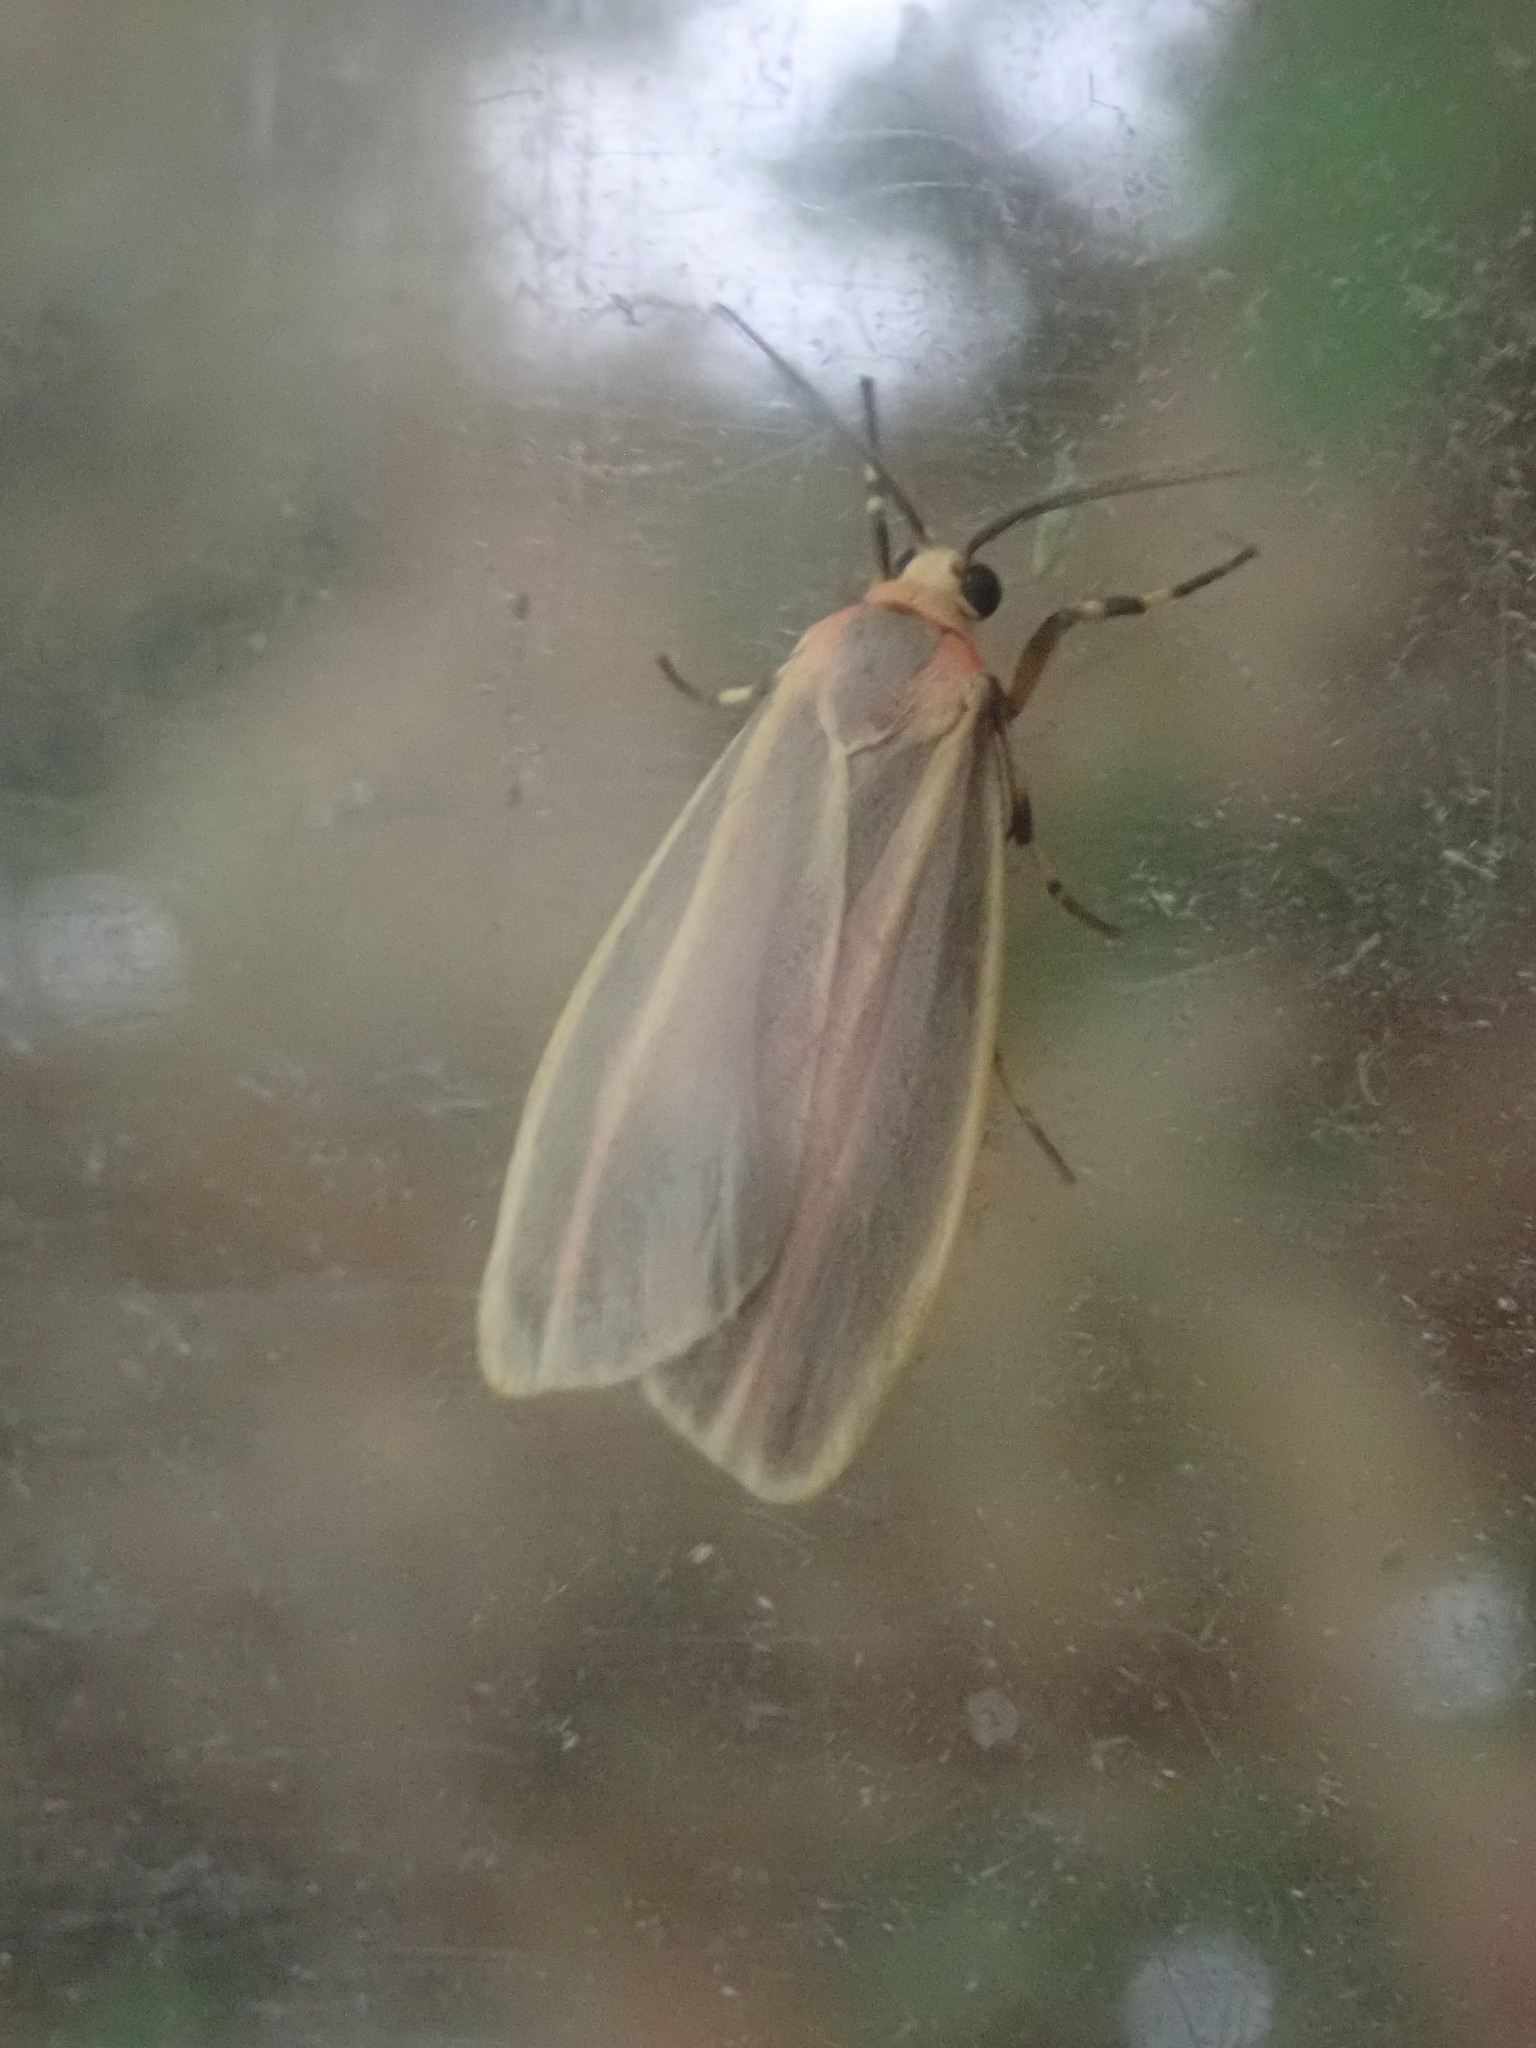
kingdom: Animalia
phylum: Arthropoda
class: Insecta
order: Lepidoptera
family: Erebidae
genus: Hypoprepia
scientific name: Hypoprepia fucosa
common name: Painted lichen moth
